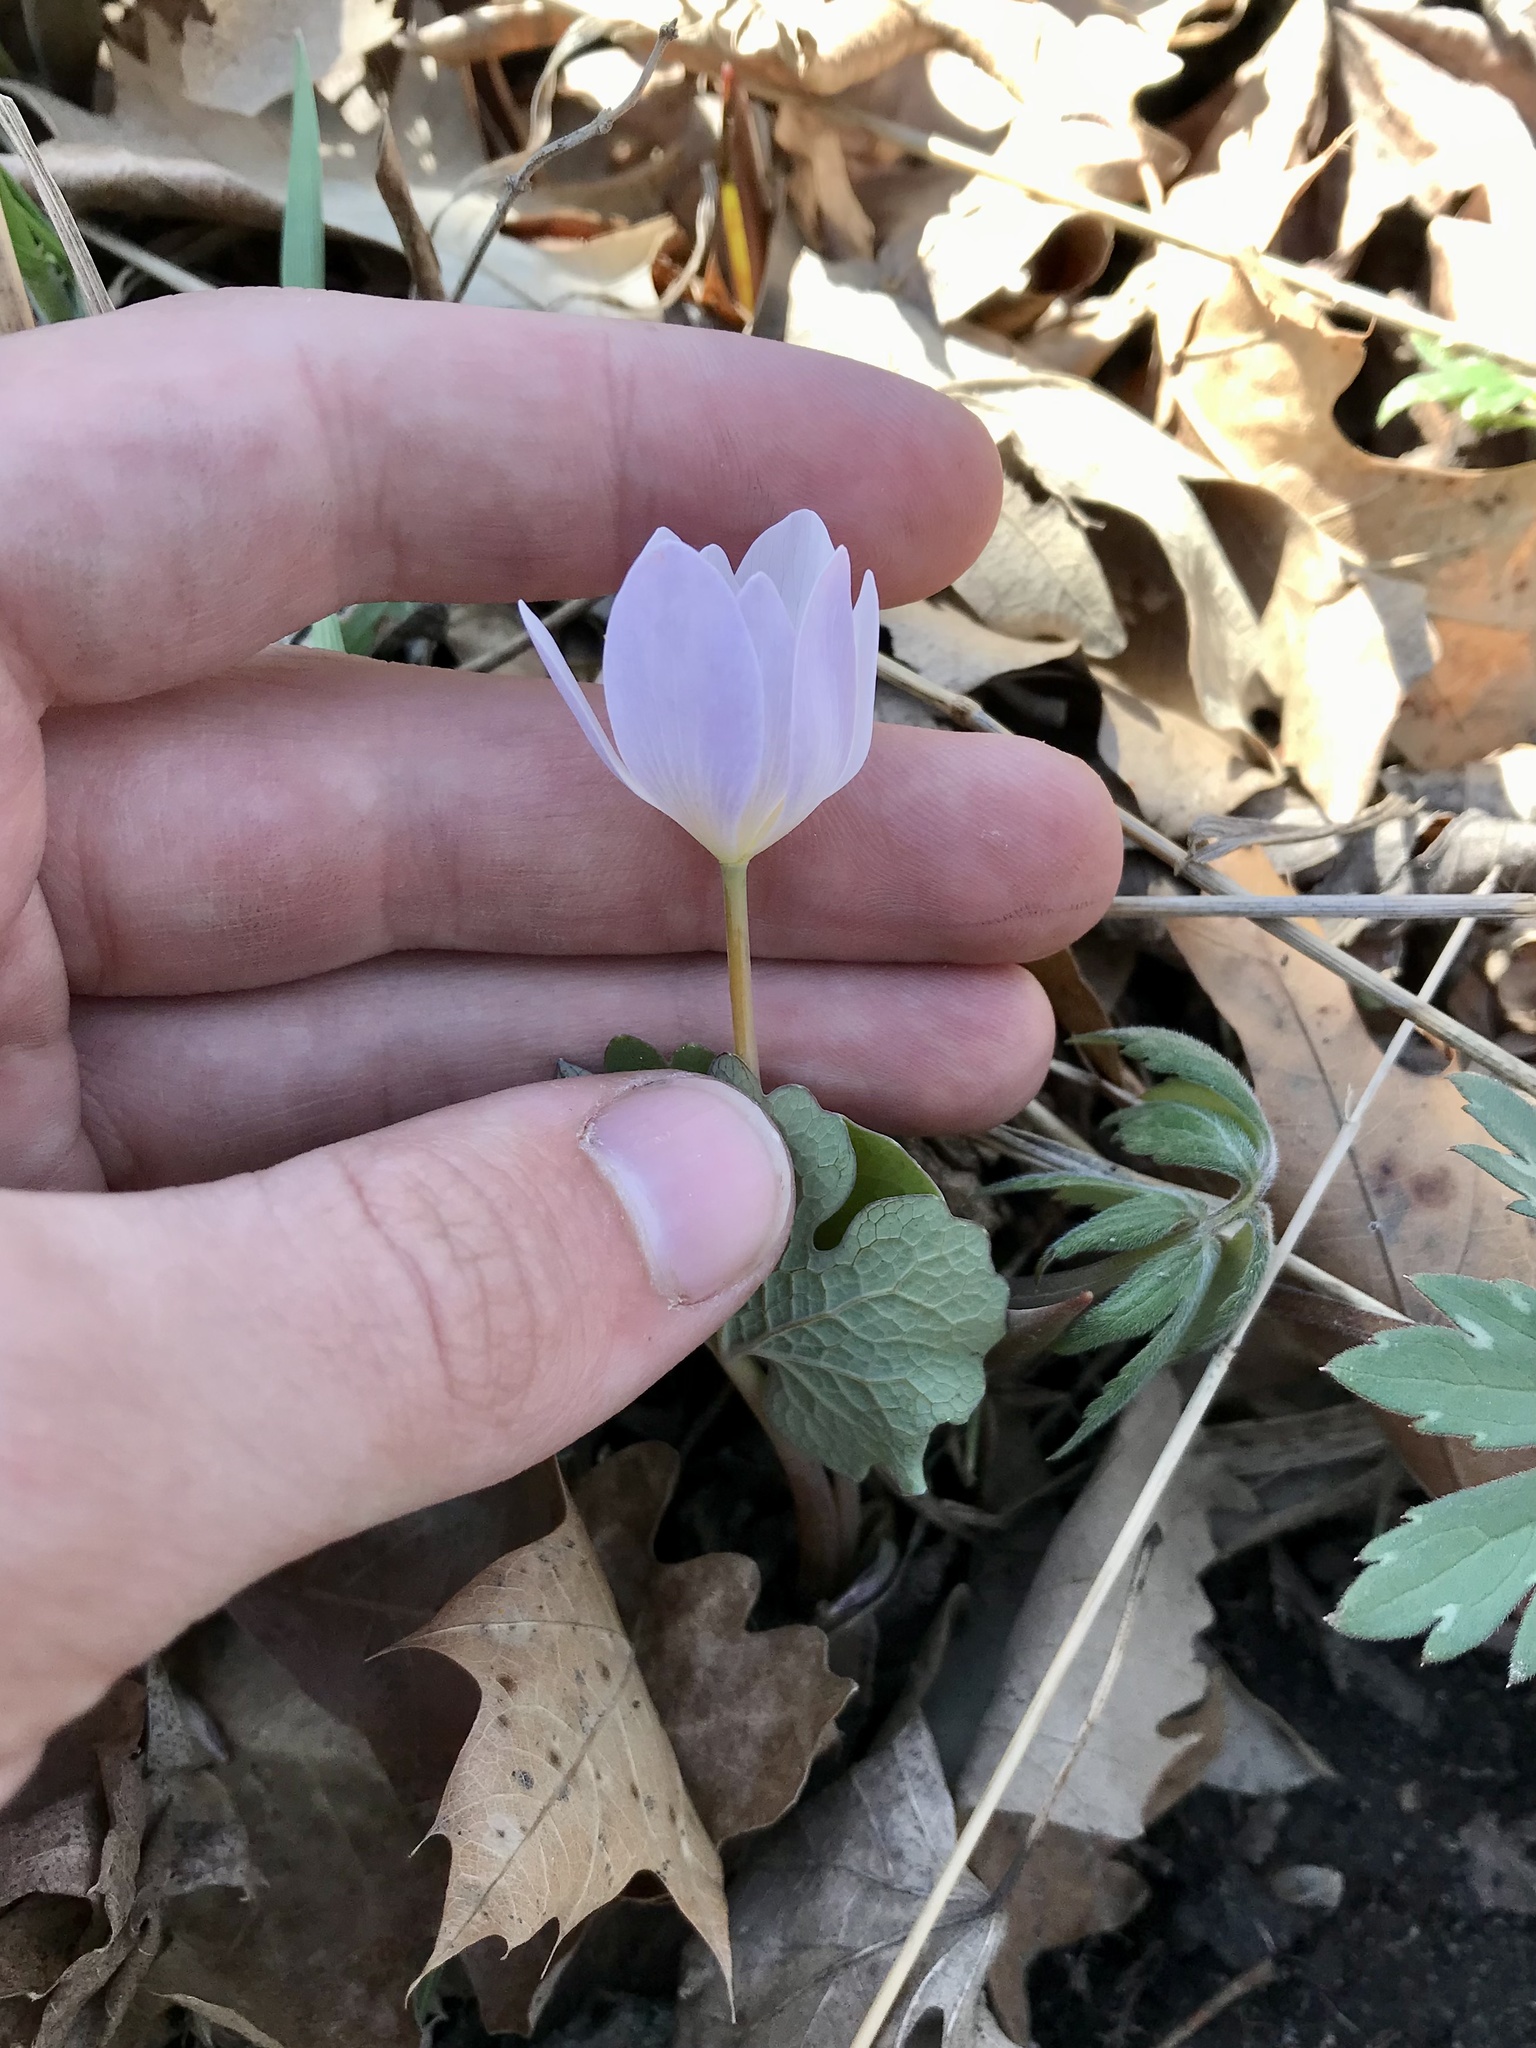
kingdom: Plantae
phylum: Tracheophyta
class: Magnoliopsida
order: Ranunculales
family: Papaveraceae
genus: Sanguinaria
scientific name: Sanguinaria canadensis
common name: Bloodroot
